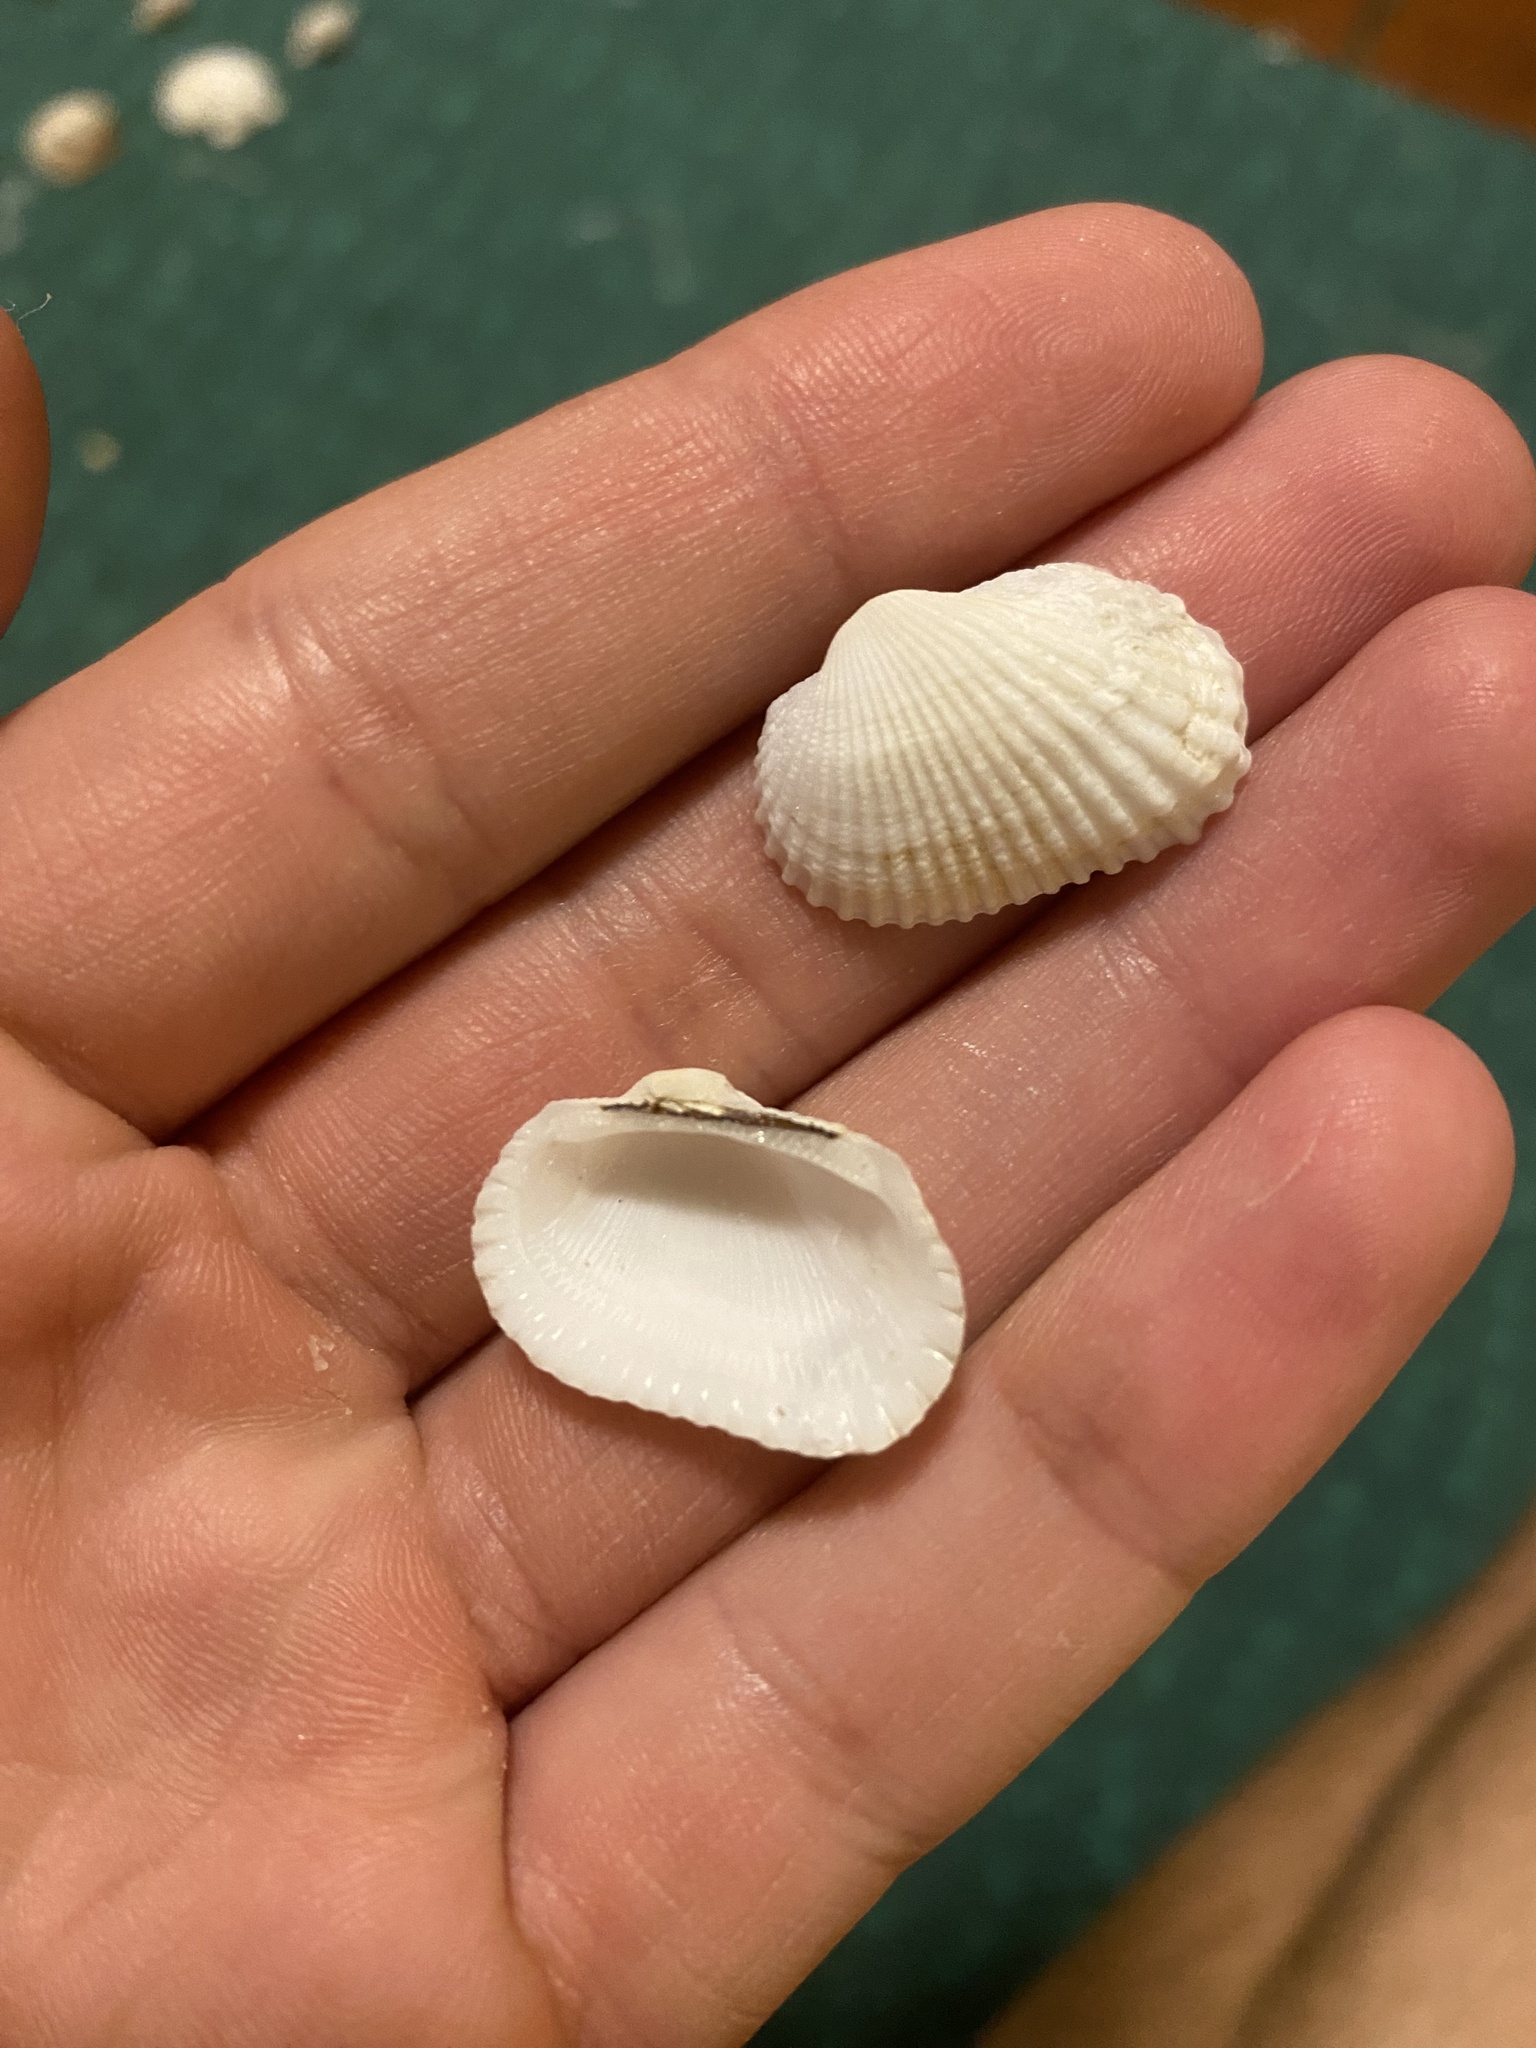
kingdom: Animalia
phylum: Mollusca
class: Bivalvia
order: Arcida
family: Arcidae
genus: Anadara
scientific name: Anadara transversa
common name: Transverse ark
